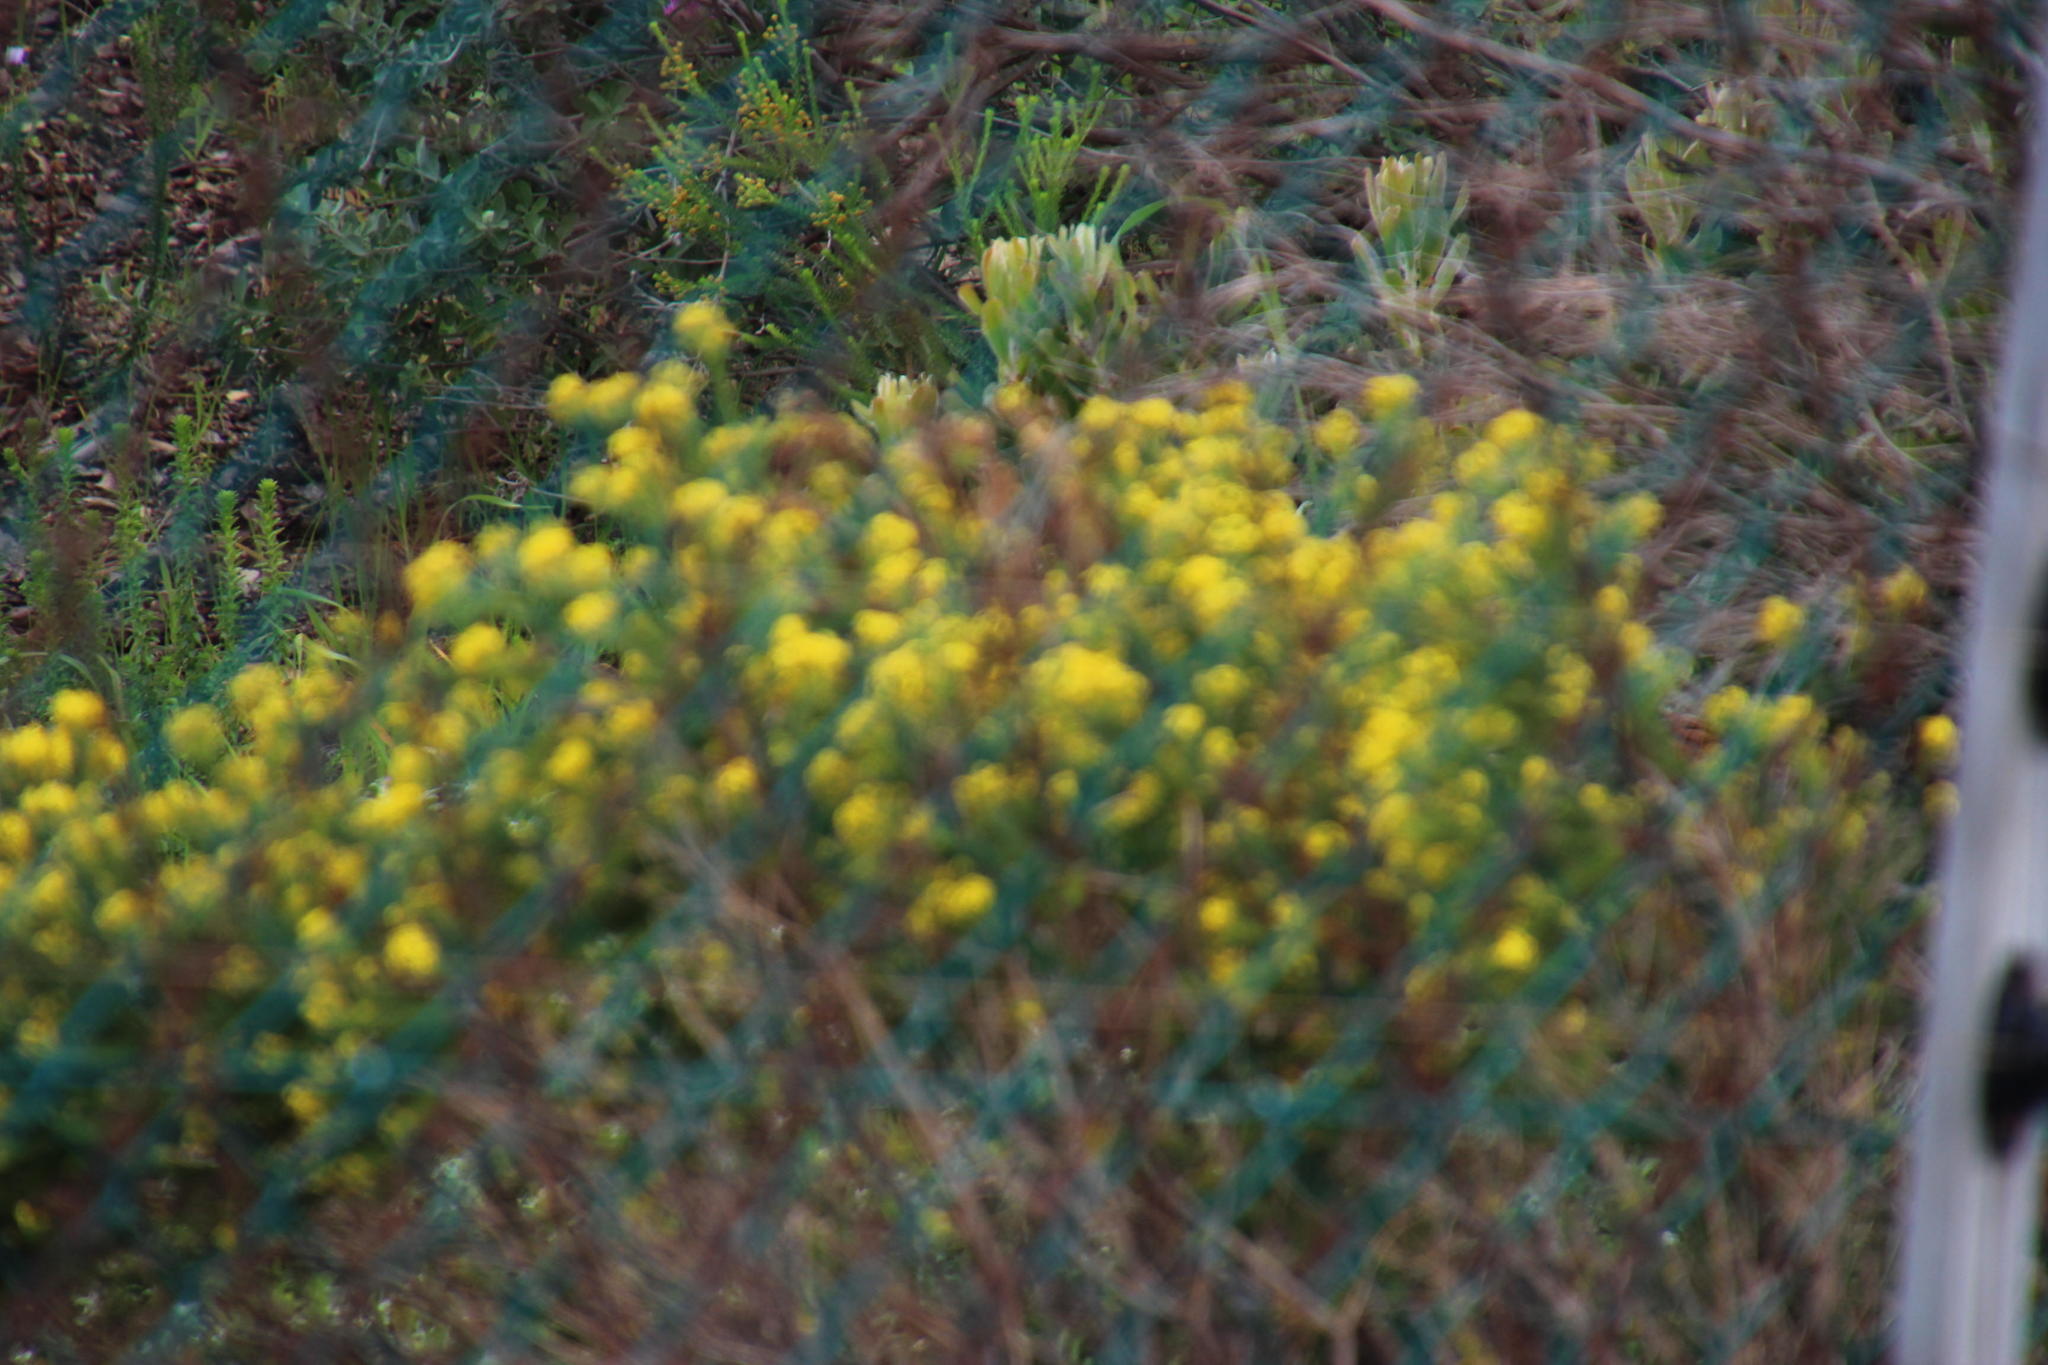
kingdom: Plantae
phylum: Tracheophyta
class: Magnoliopsida
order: Asterales
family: Asteraceae
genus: Euryops
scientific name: Euryops virgineus
